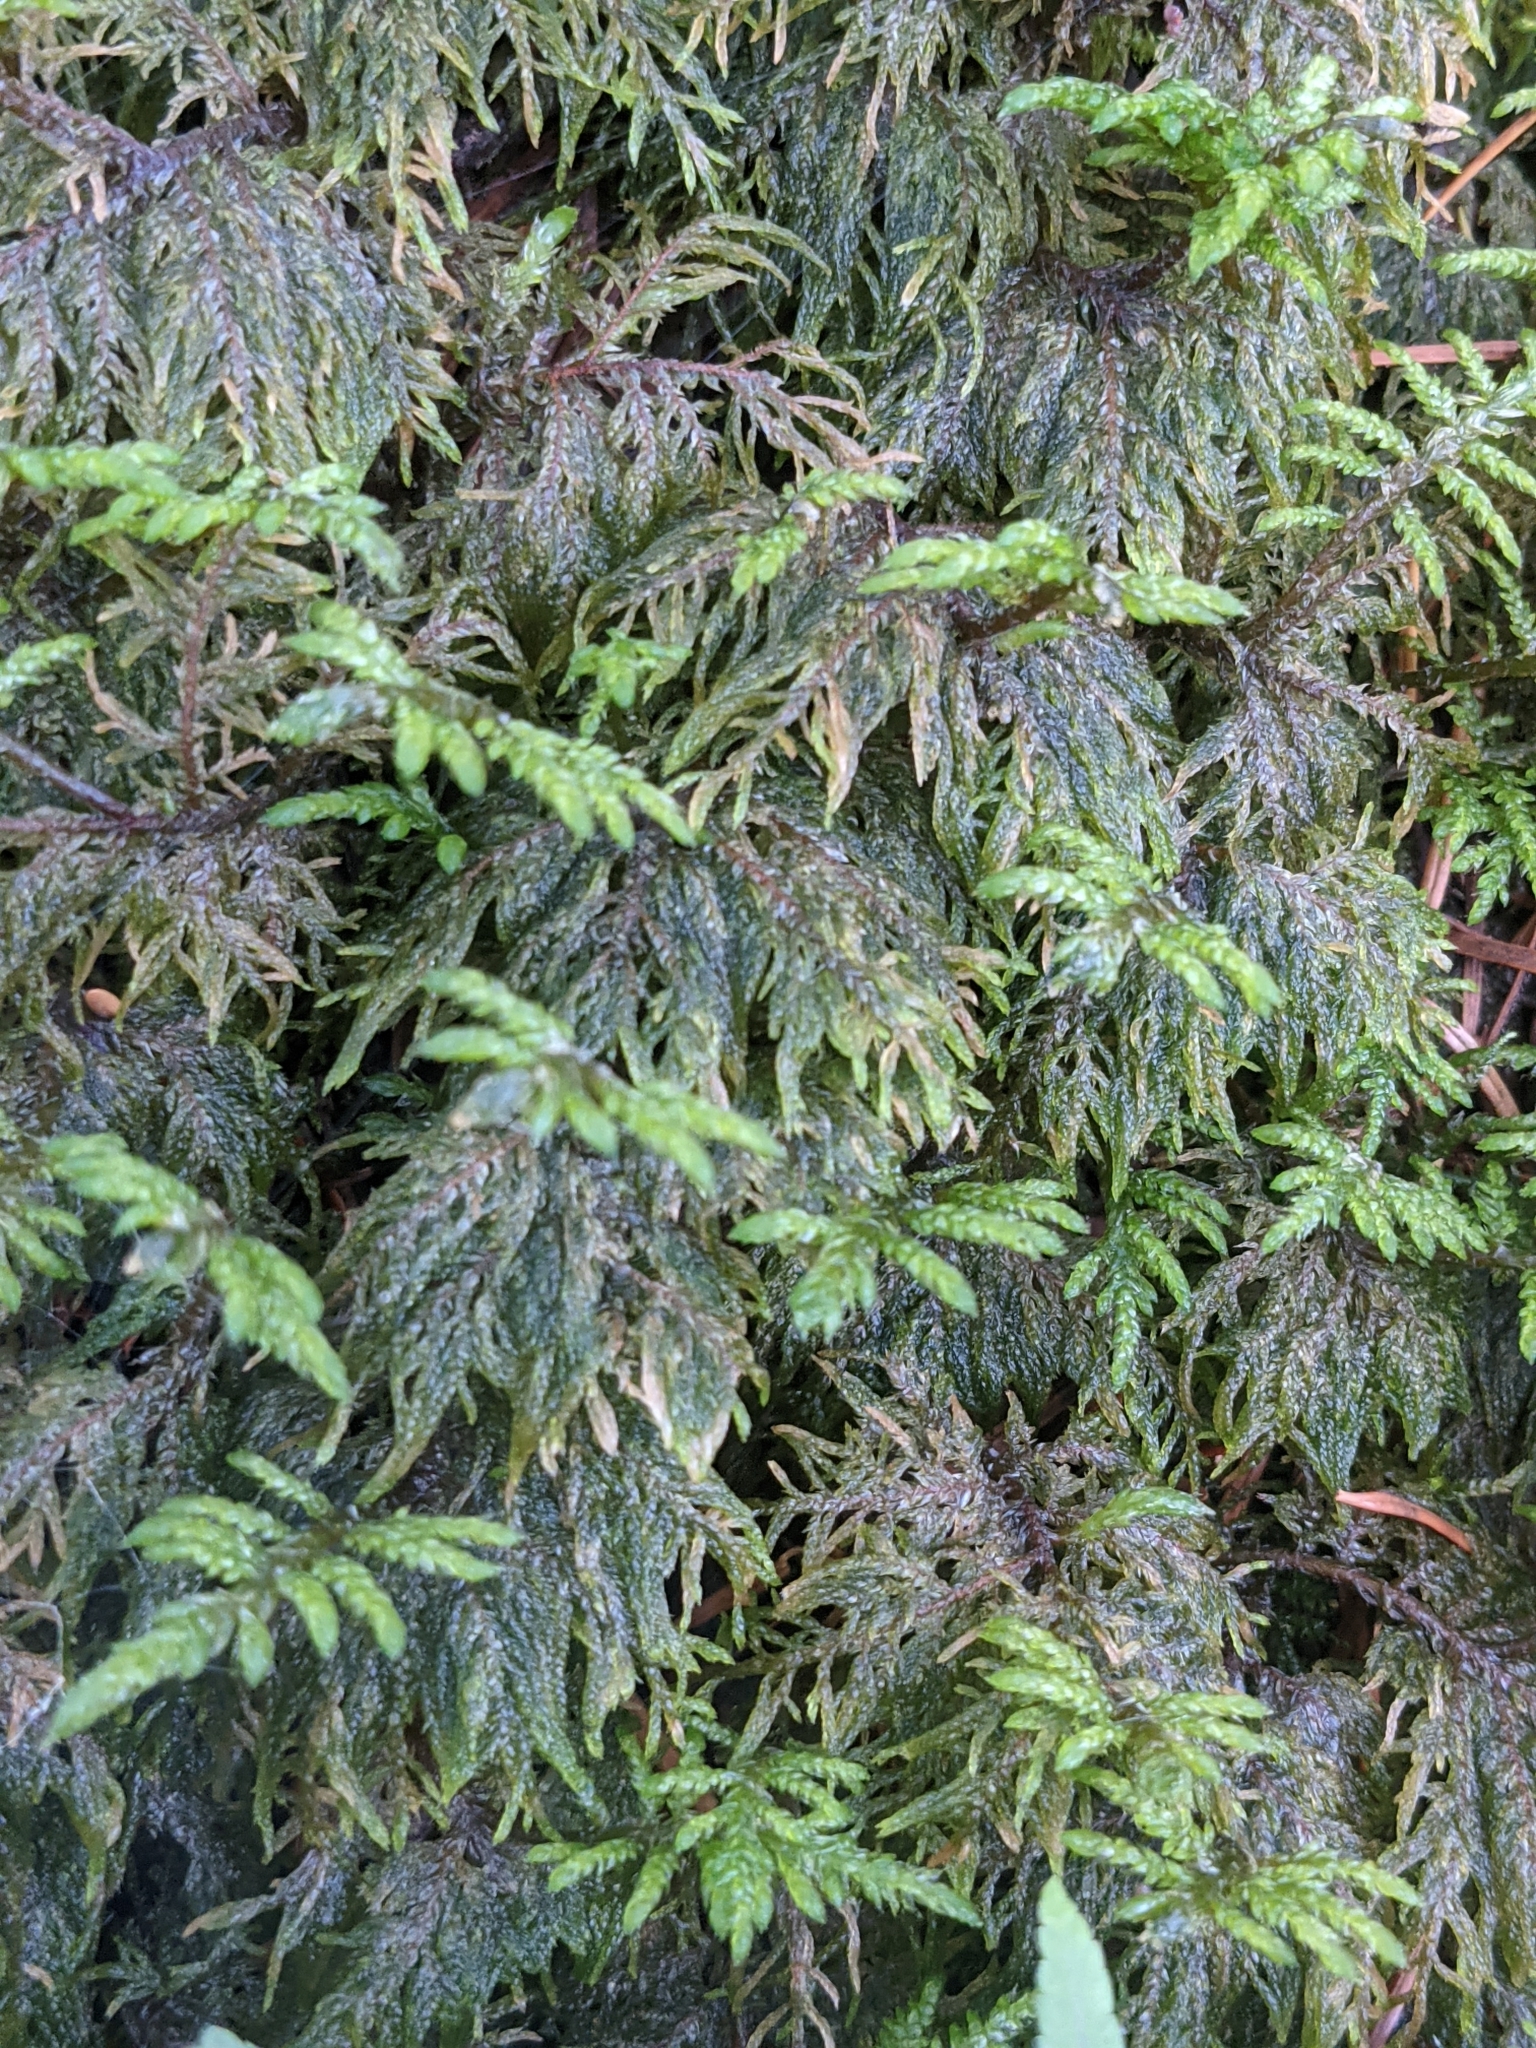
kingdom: Plantae
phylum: Bryophyta
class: Bryopsida
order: Hypnales
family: Hylocomiaceae
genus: Hylocomium
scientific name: Hylocomium splendens
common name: Stairstep moss
